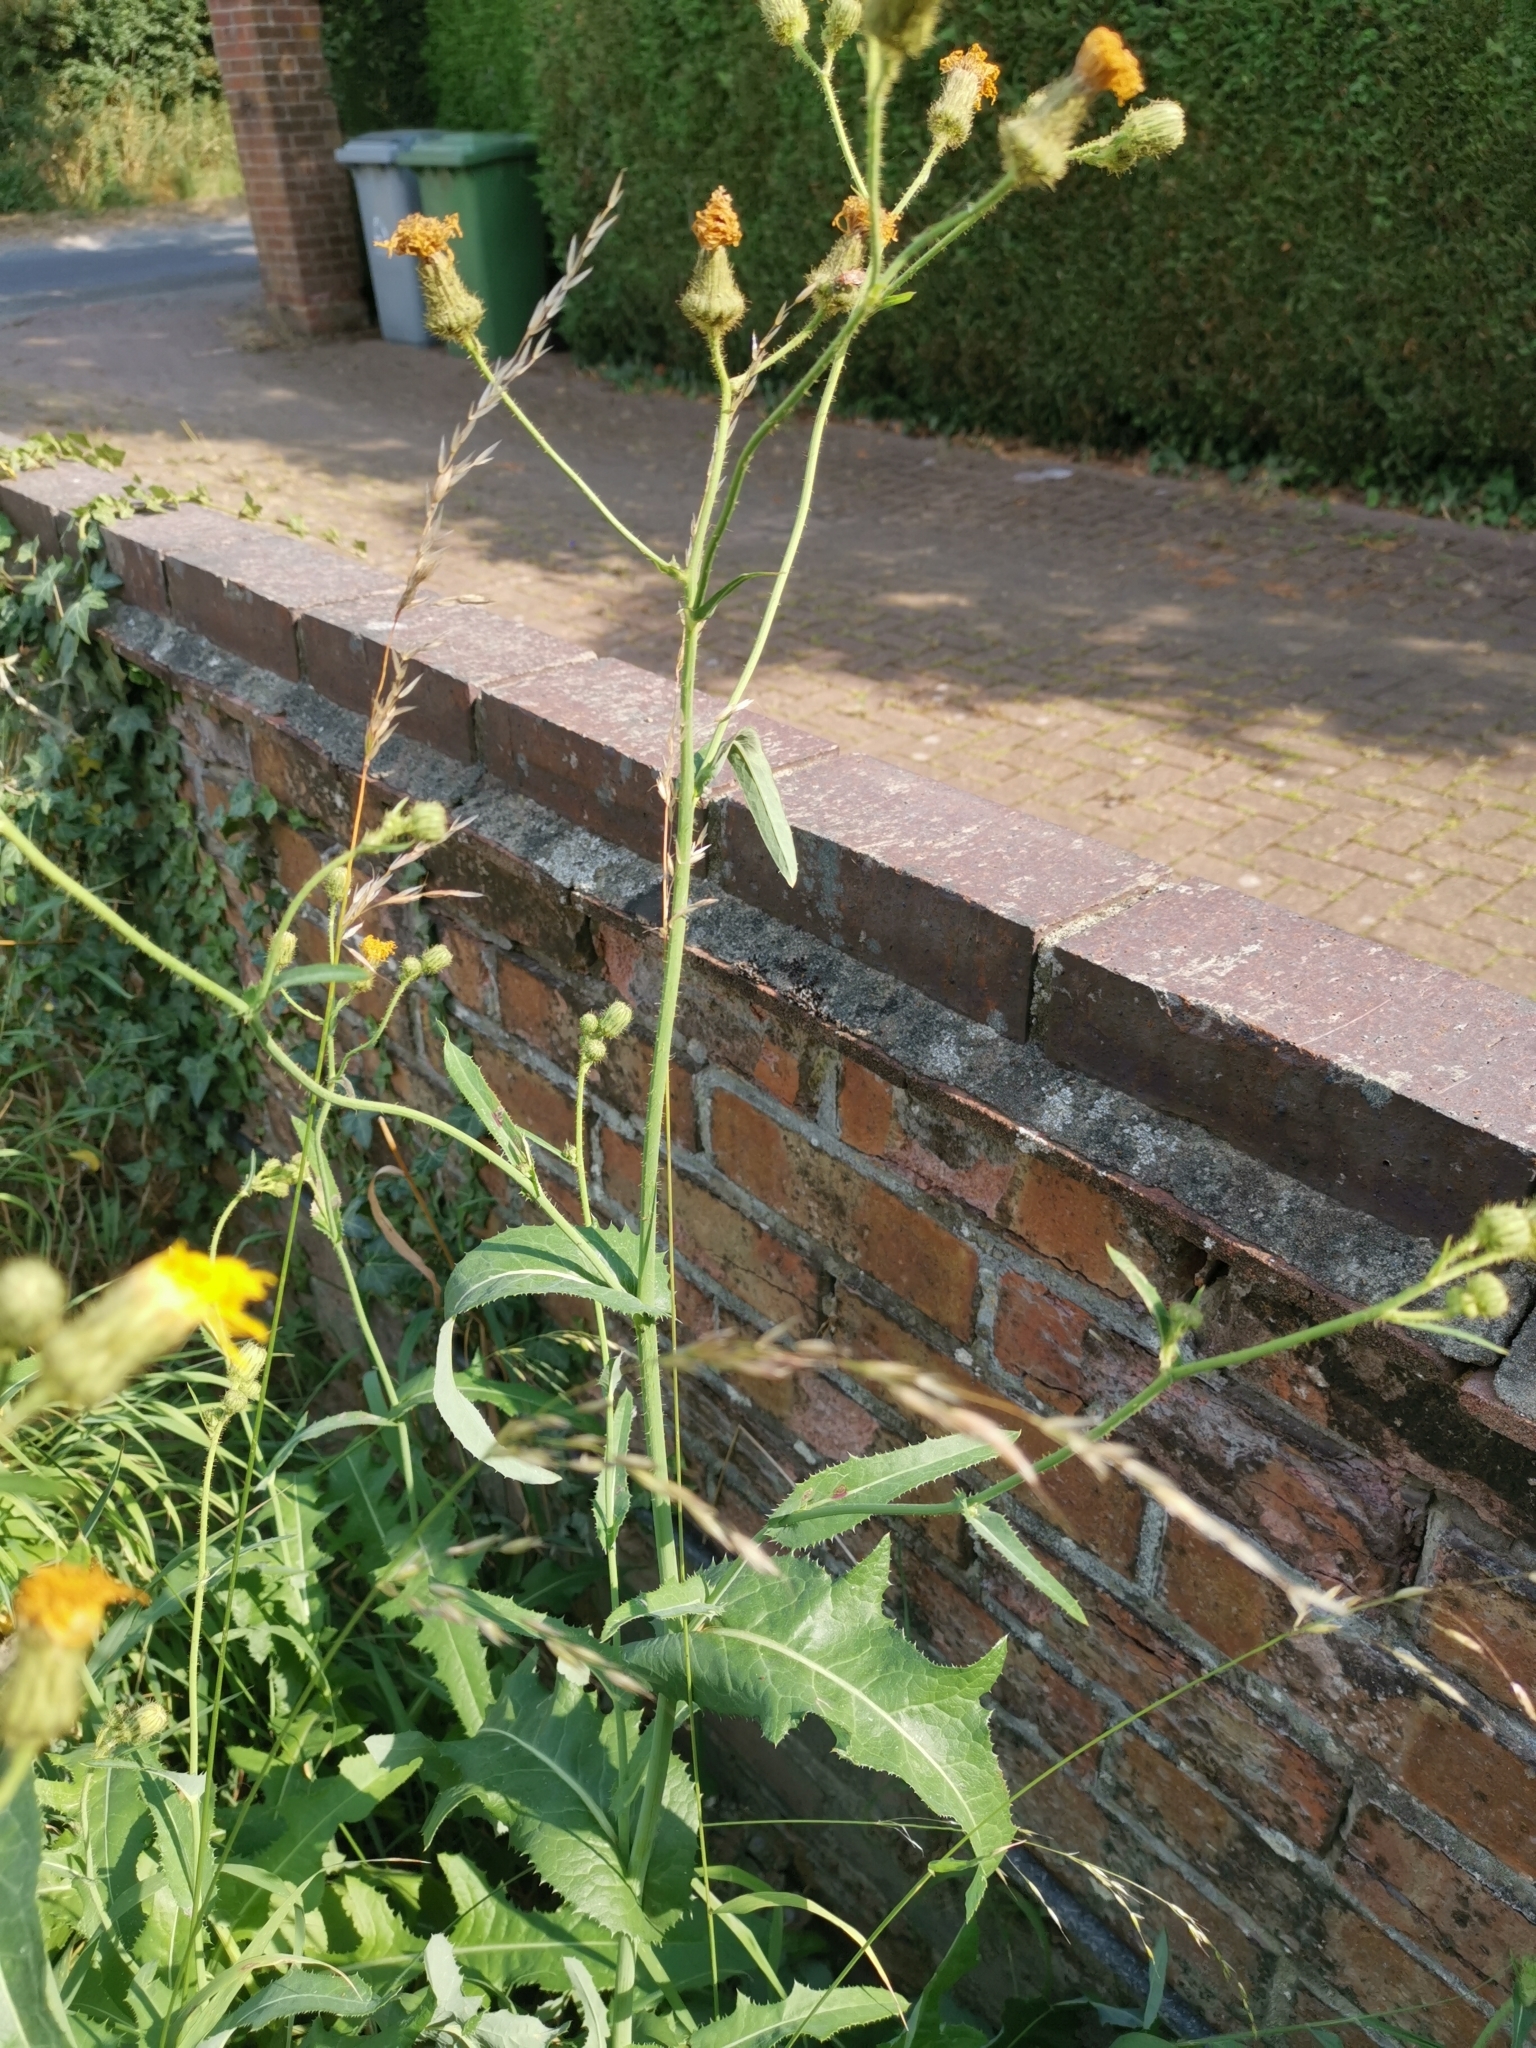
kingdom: Plantae
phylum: Tracheophyta
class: Magnoliopsida
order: Asterales
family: Asteraceae
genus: Sonchus
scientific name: Sonchus arvensis
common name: Perennial sow-thistle
